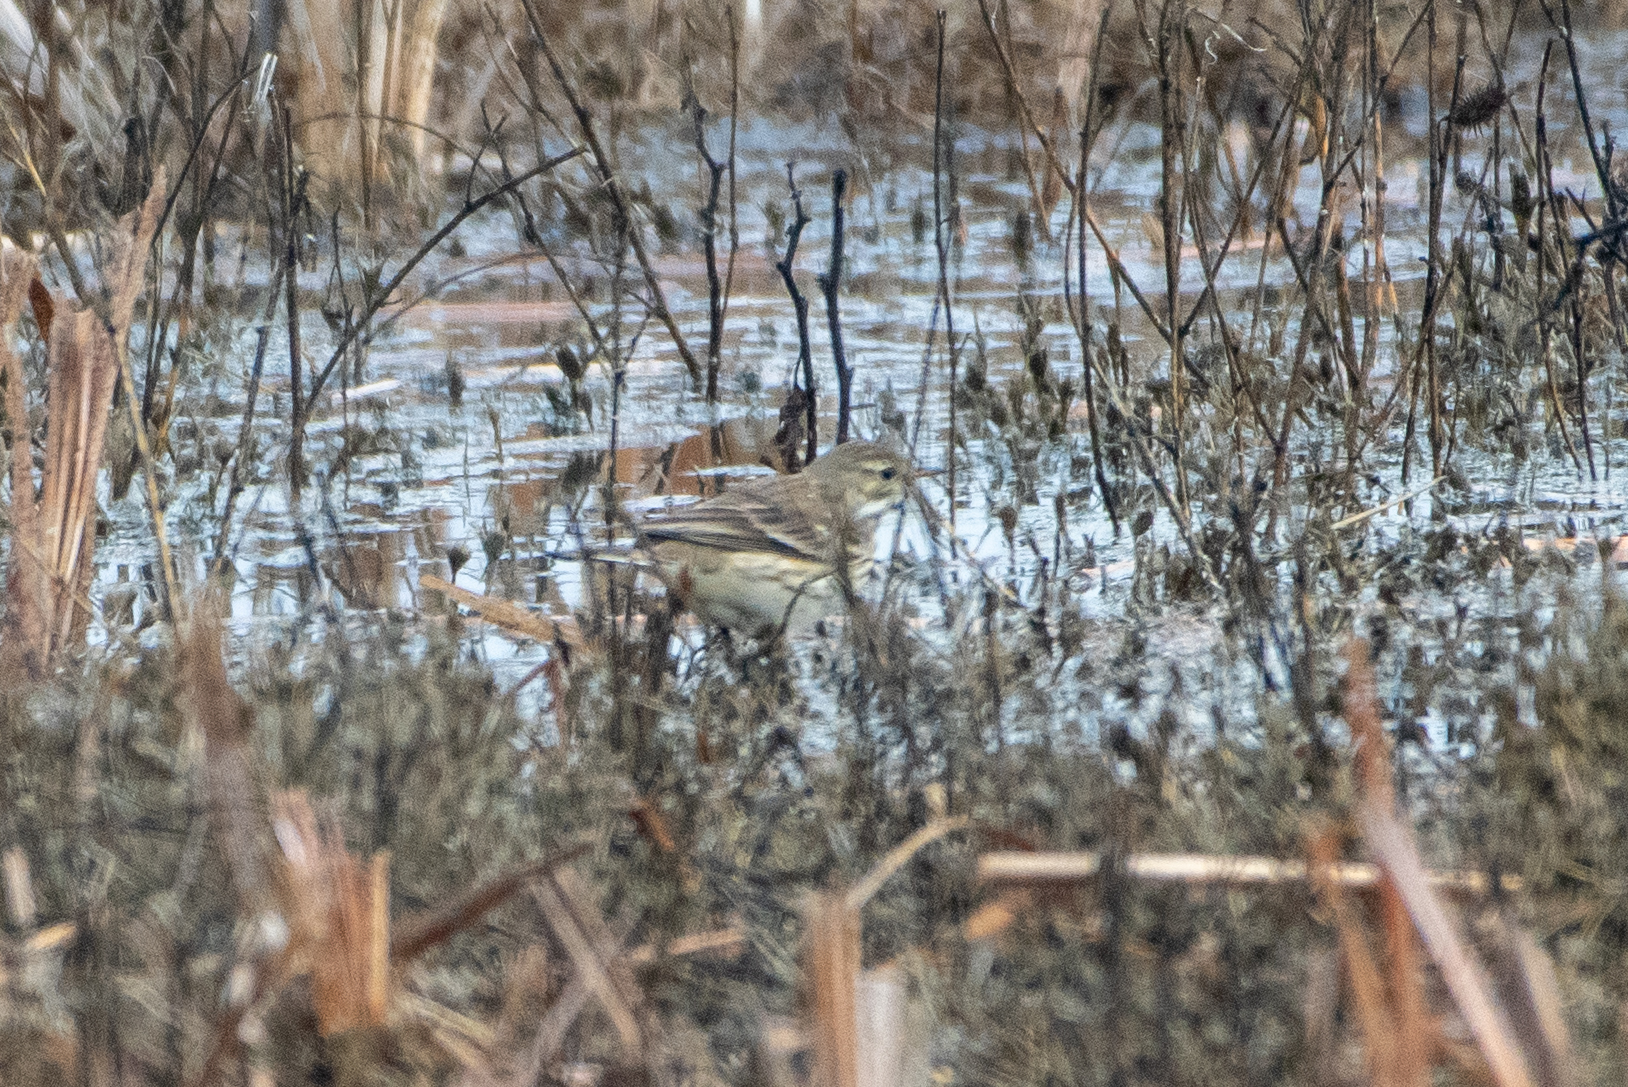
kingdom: Animalia
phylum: Chordata
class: Aves
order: Passeriformes
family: Motacillidae
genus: Anthus
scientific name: Anthus rubescens
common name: Buff-bellied pipit
